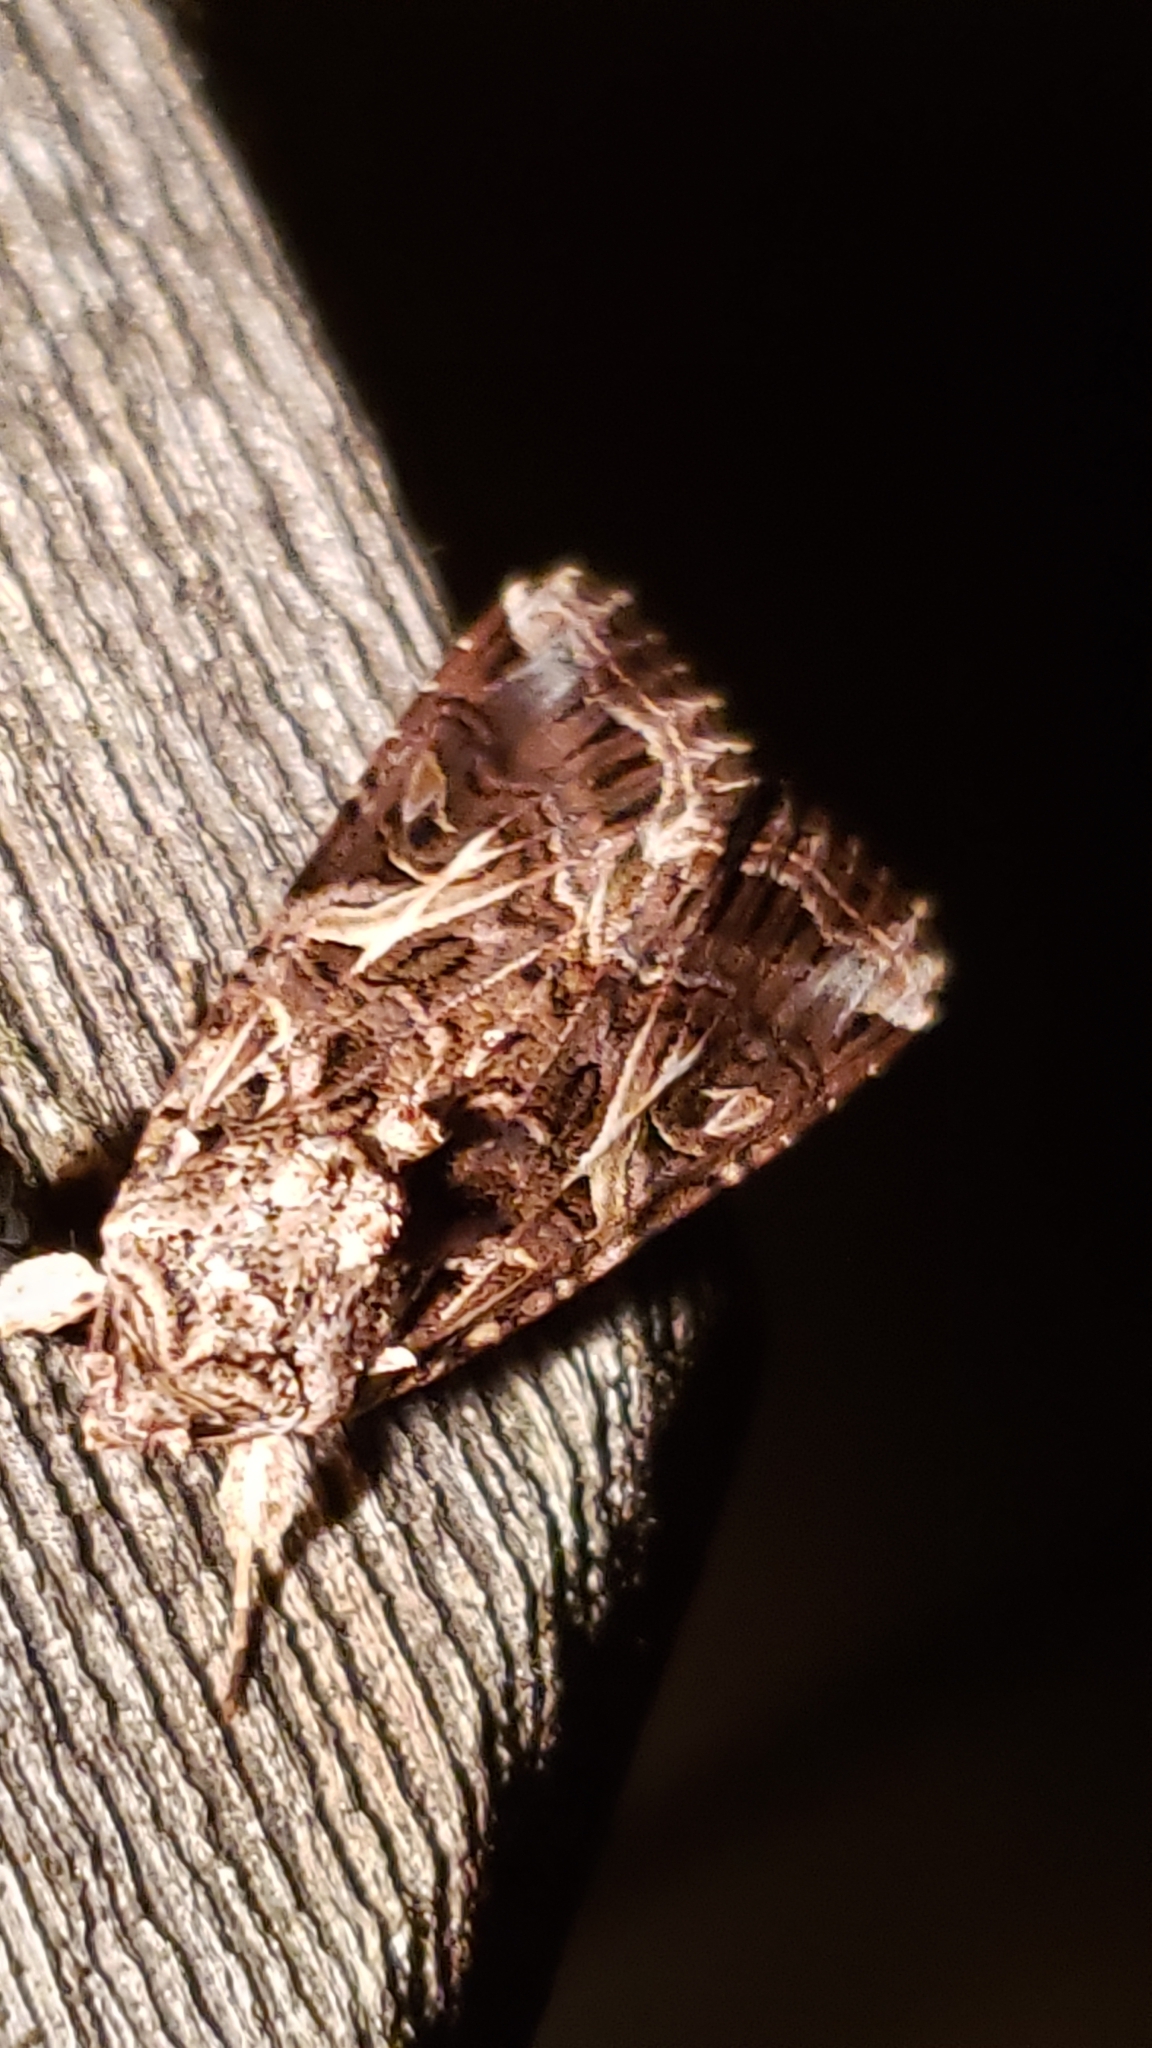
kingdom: Animalia
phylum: Arthropoda
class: Insecta
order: Lepidoptera
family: Noctuidae
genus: Spodoptera
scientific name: Spodoptera ornithogalli
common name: Yellow-striped armyworm
